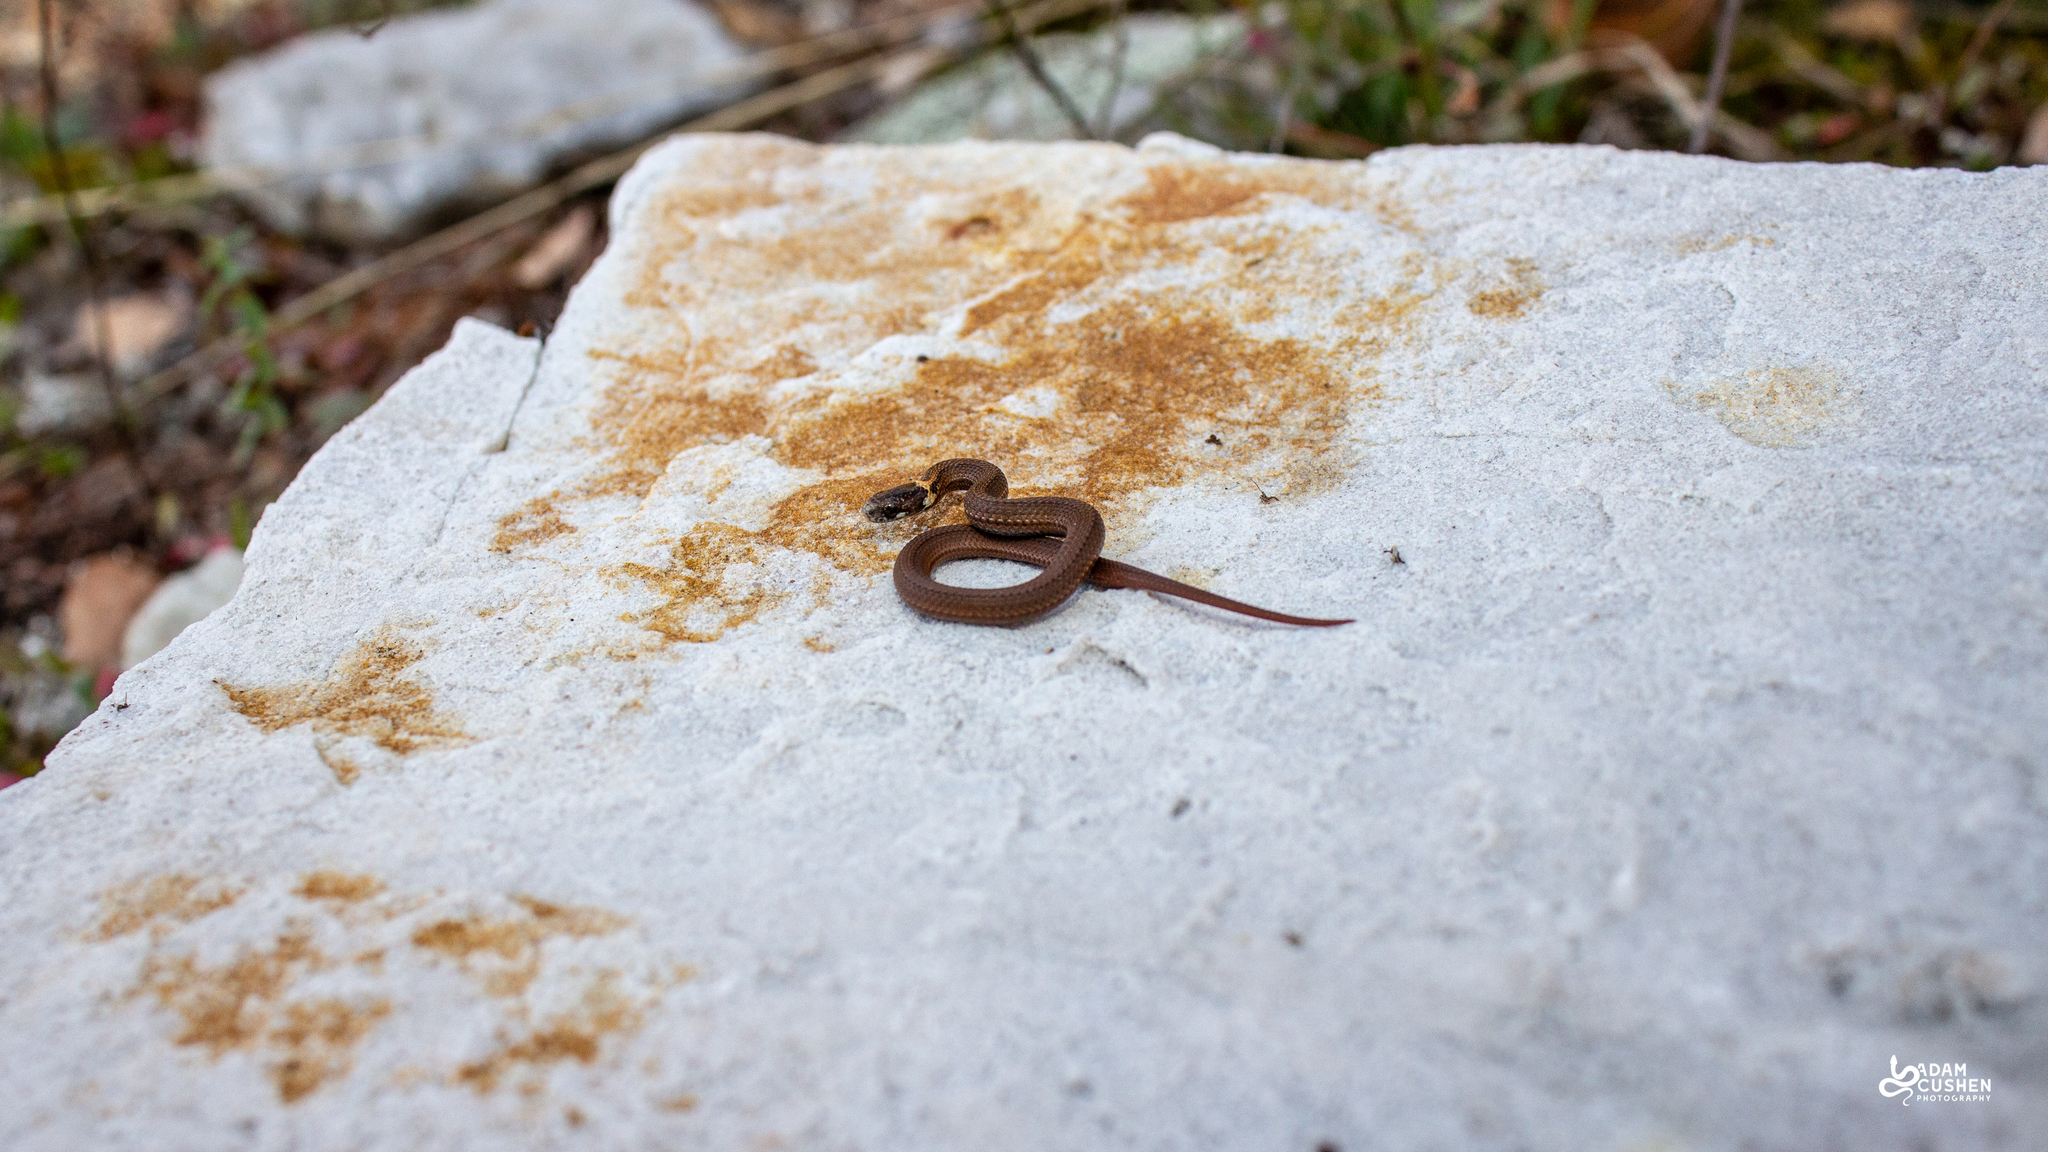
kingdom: Animalia
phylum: Chordata
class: Squamata
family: Colubridae
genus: Storeria
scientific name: Storeria occipitomaculata
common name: Redbelly snake
